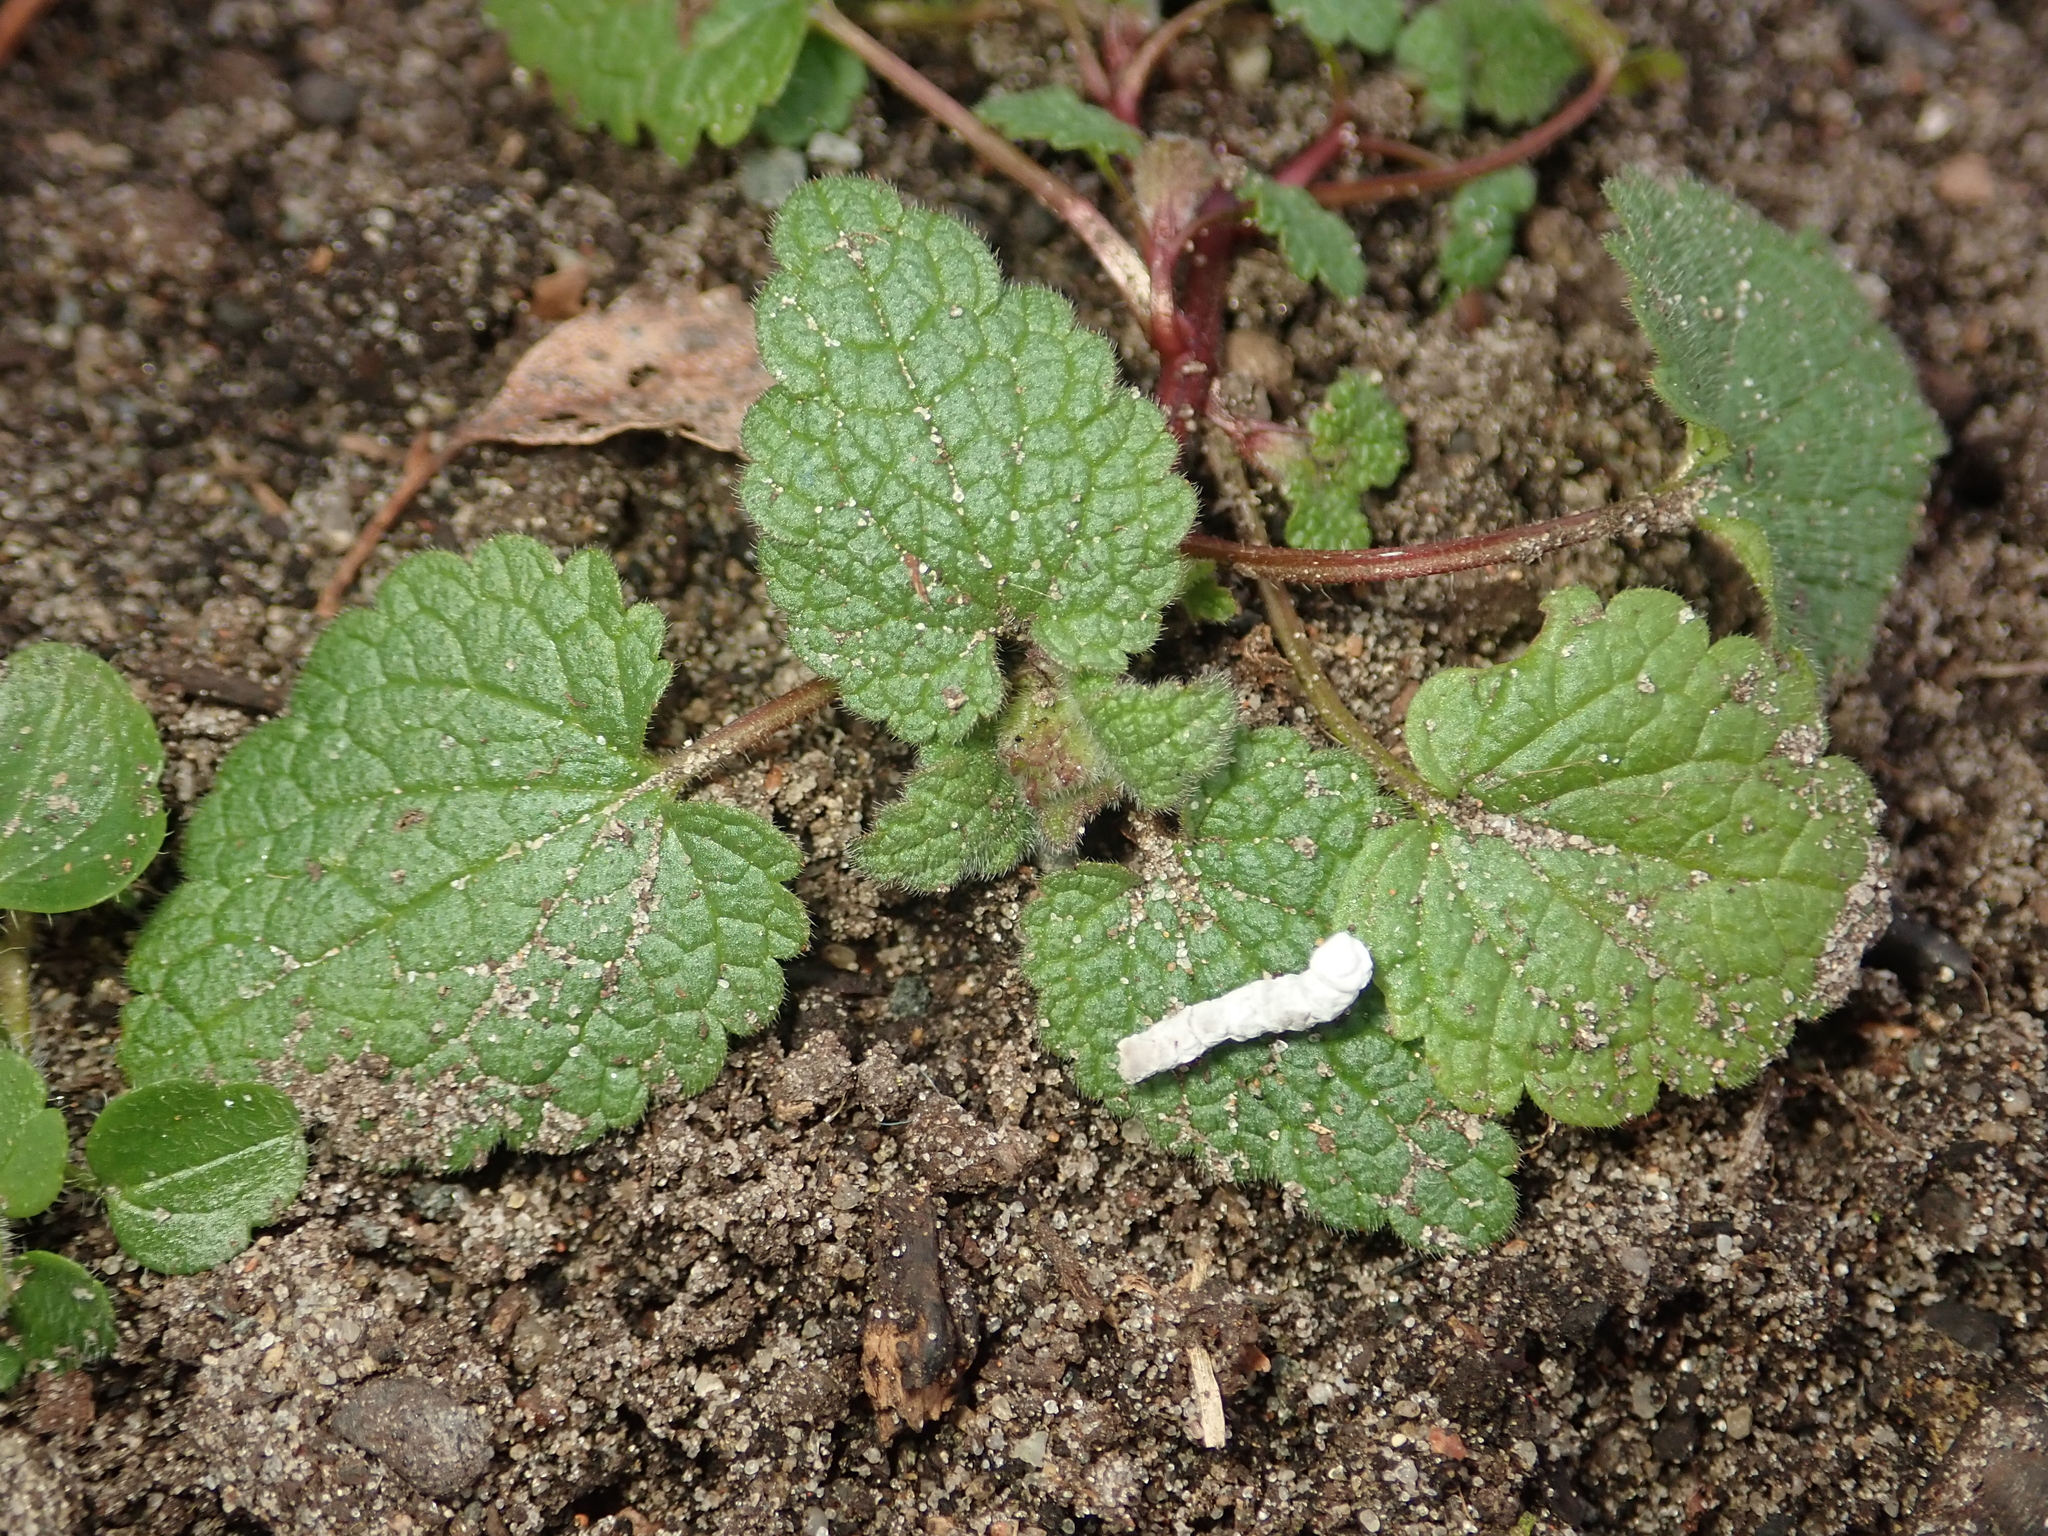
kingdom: Plantae
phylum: Tracheophyta
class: Magnoliopsida
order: Lamiales
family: Lamiaceae
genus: Lamium
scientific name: Lamium purpureum
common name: Red dead-nettle
